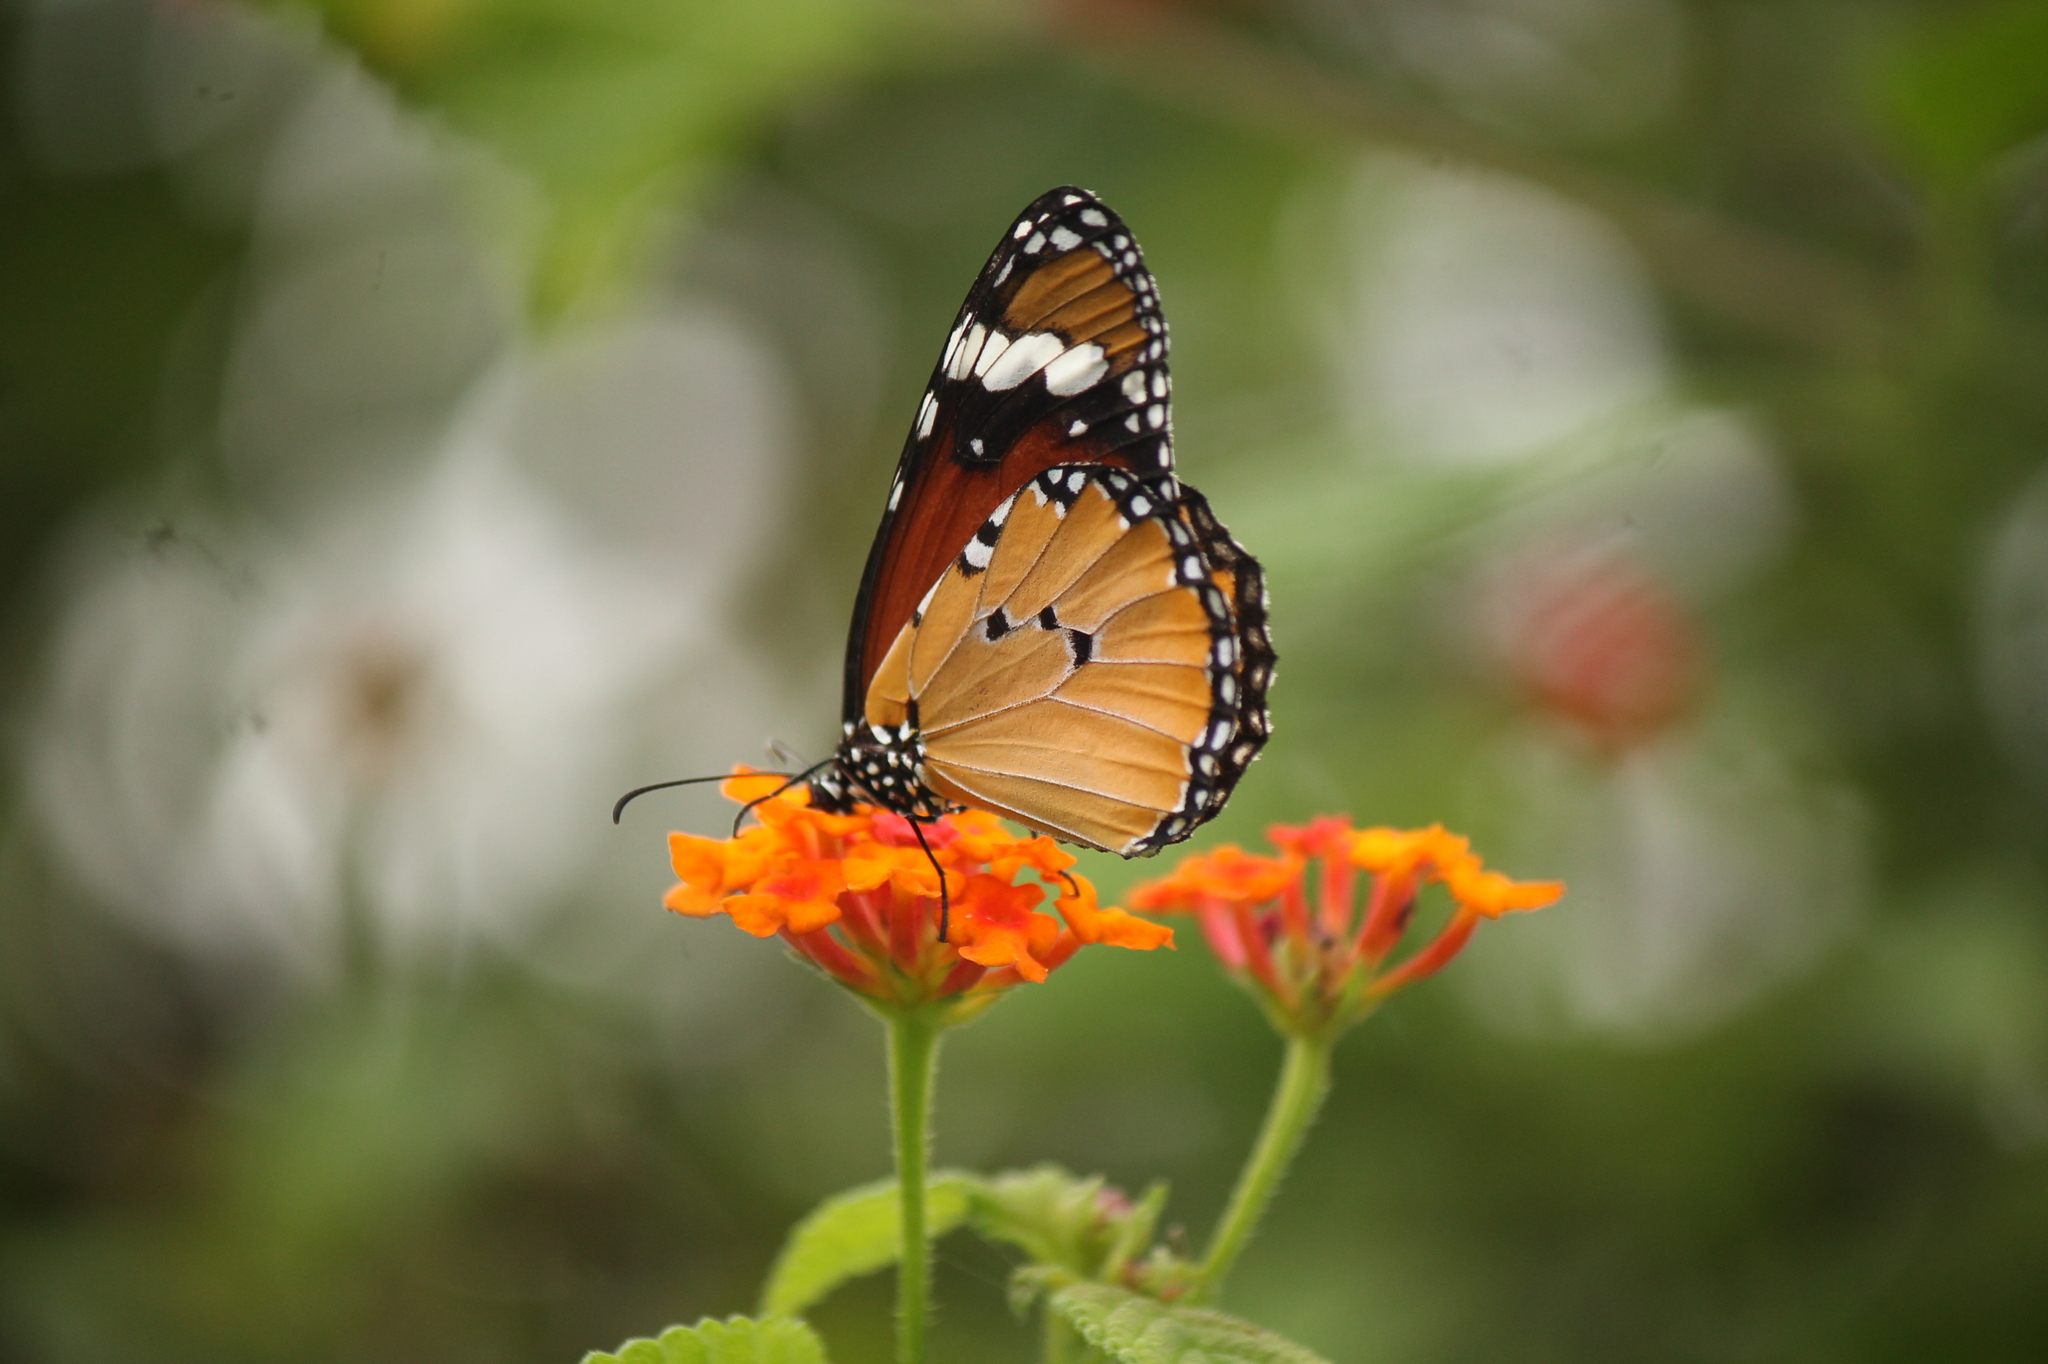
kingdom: Animalia
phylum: Arthropoda
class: Insecta
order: Lepidoptera
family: Nymphalidae
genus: Danaus
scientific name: Danaus chrysippus
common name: Plain tiger
